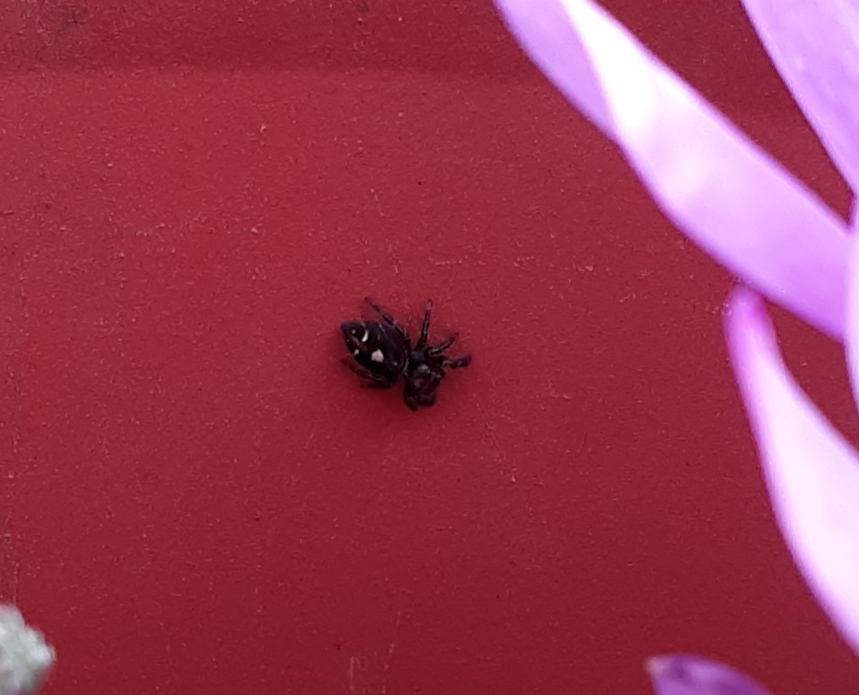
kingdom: Animalia
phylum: Arthropoda
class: Arachnida
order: Araneae
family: Salticidae
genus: Phidippus
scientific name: Phidippus audax
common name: Bold jumper
